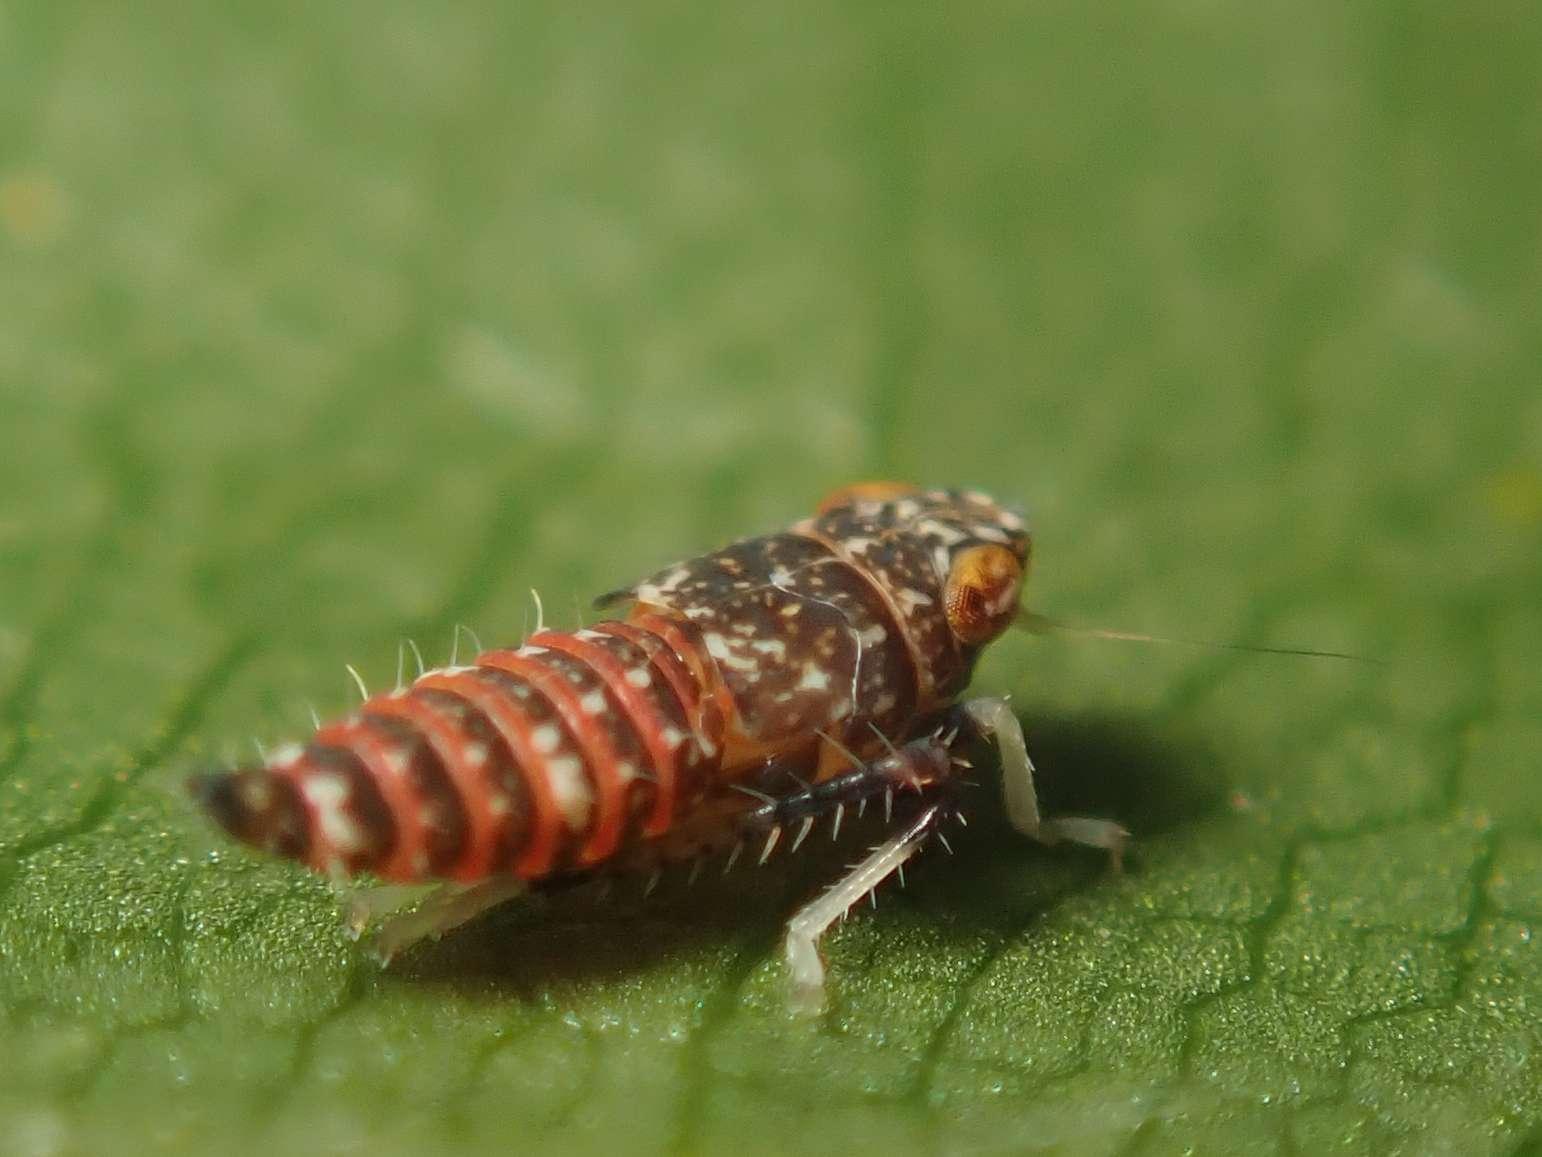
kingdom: Animalia
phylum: Arthropoda
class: Insecta
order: Hemiptera
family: Cicadellidae
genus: Orientus
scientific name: Orientus ishidae
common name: Japanese leafhopper
